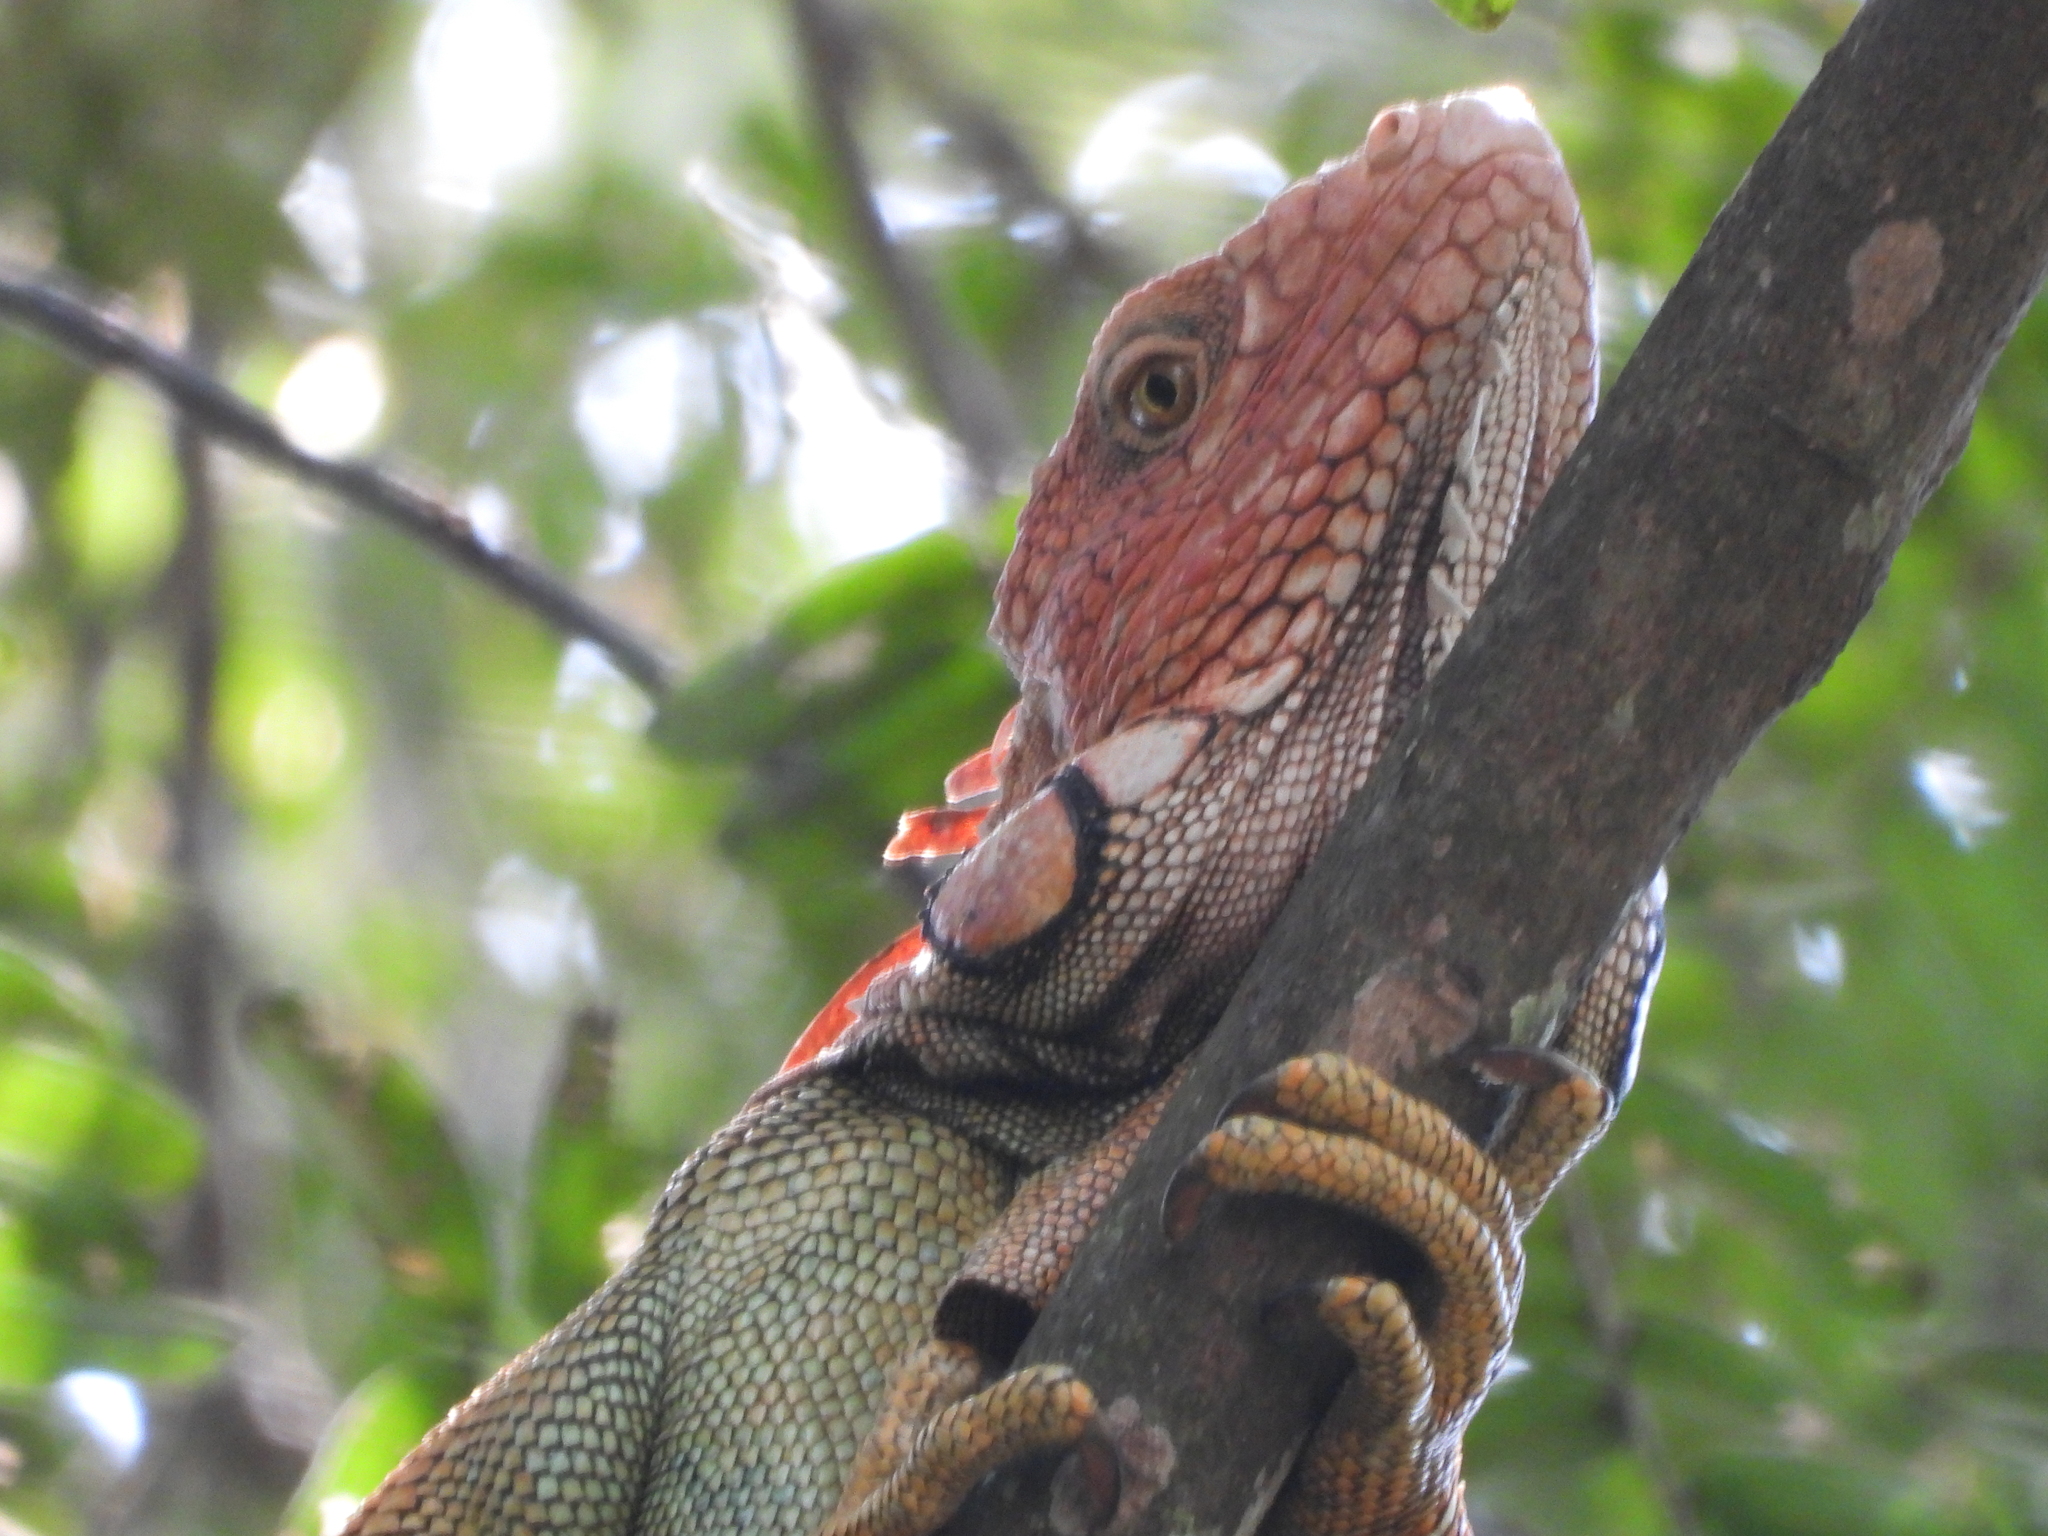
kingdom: Animalia
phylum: Chordata
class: Squamata
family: Iguanidae
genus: Iguana
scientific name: Iguana iguana
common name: Green iguana
